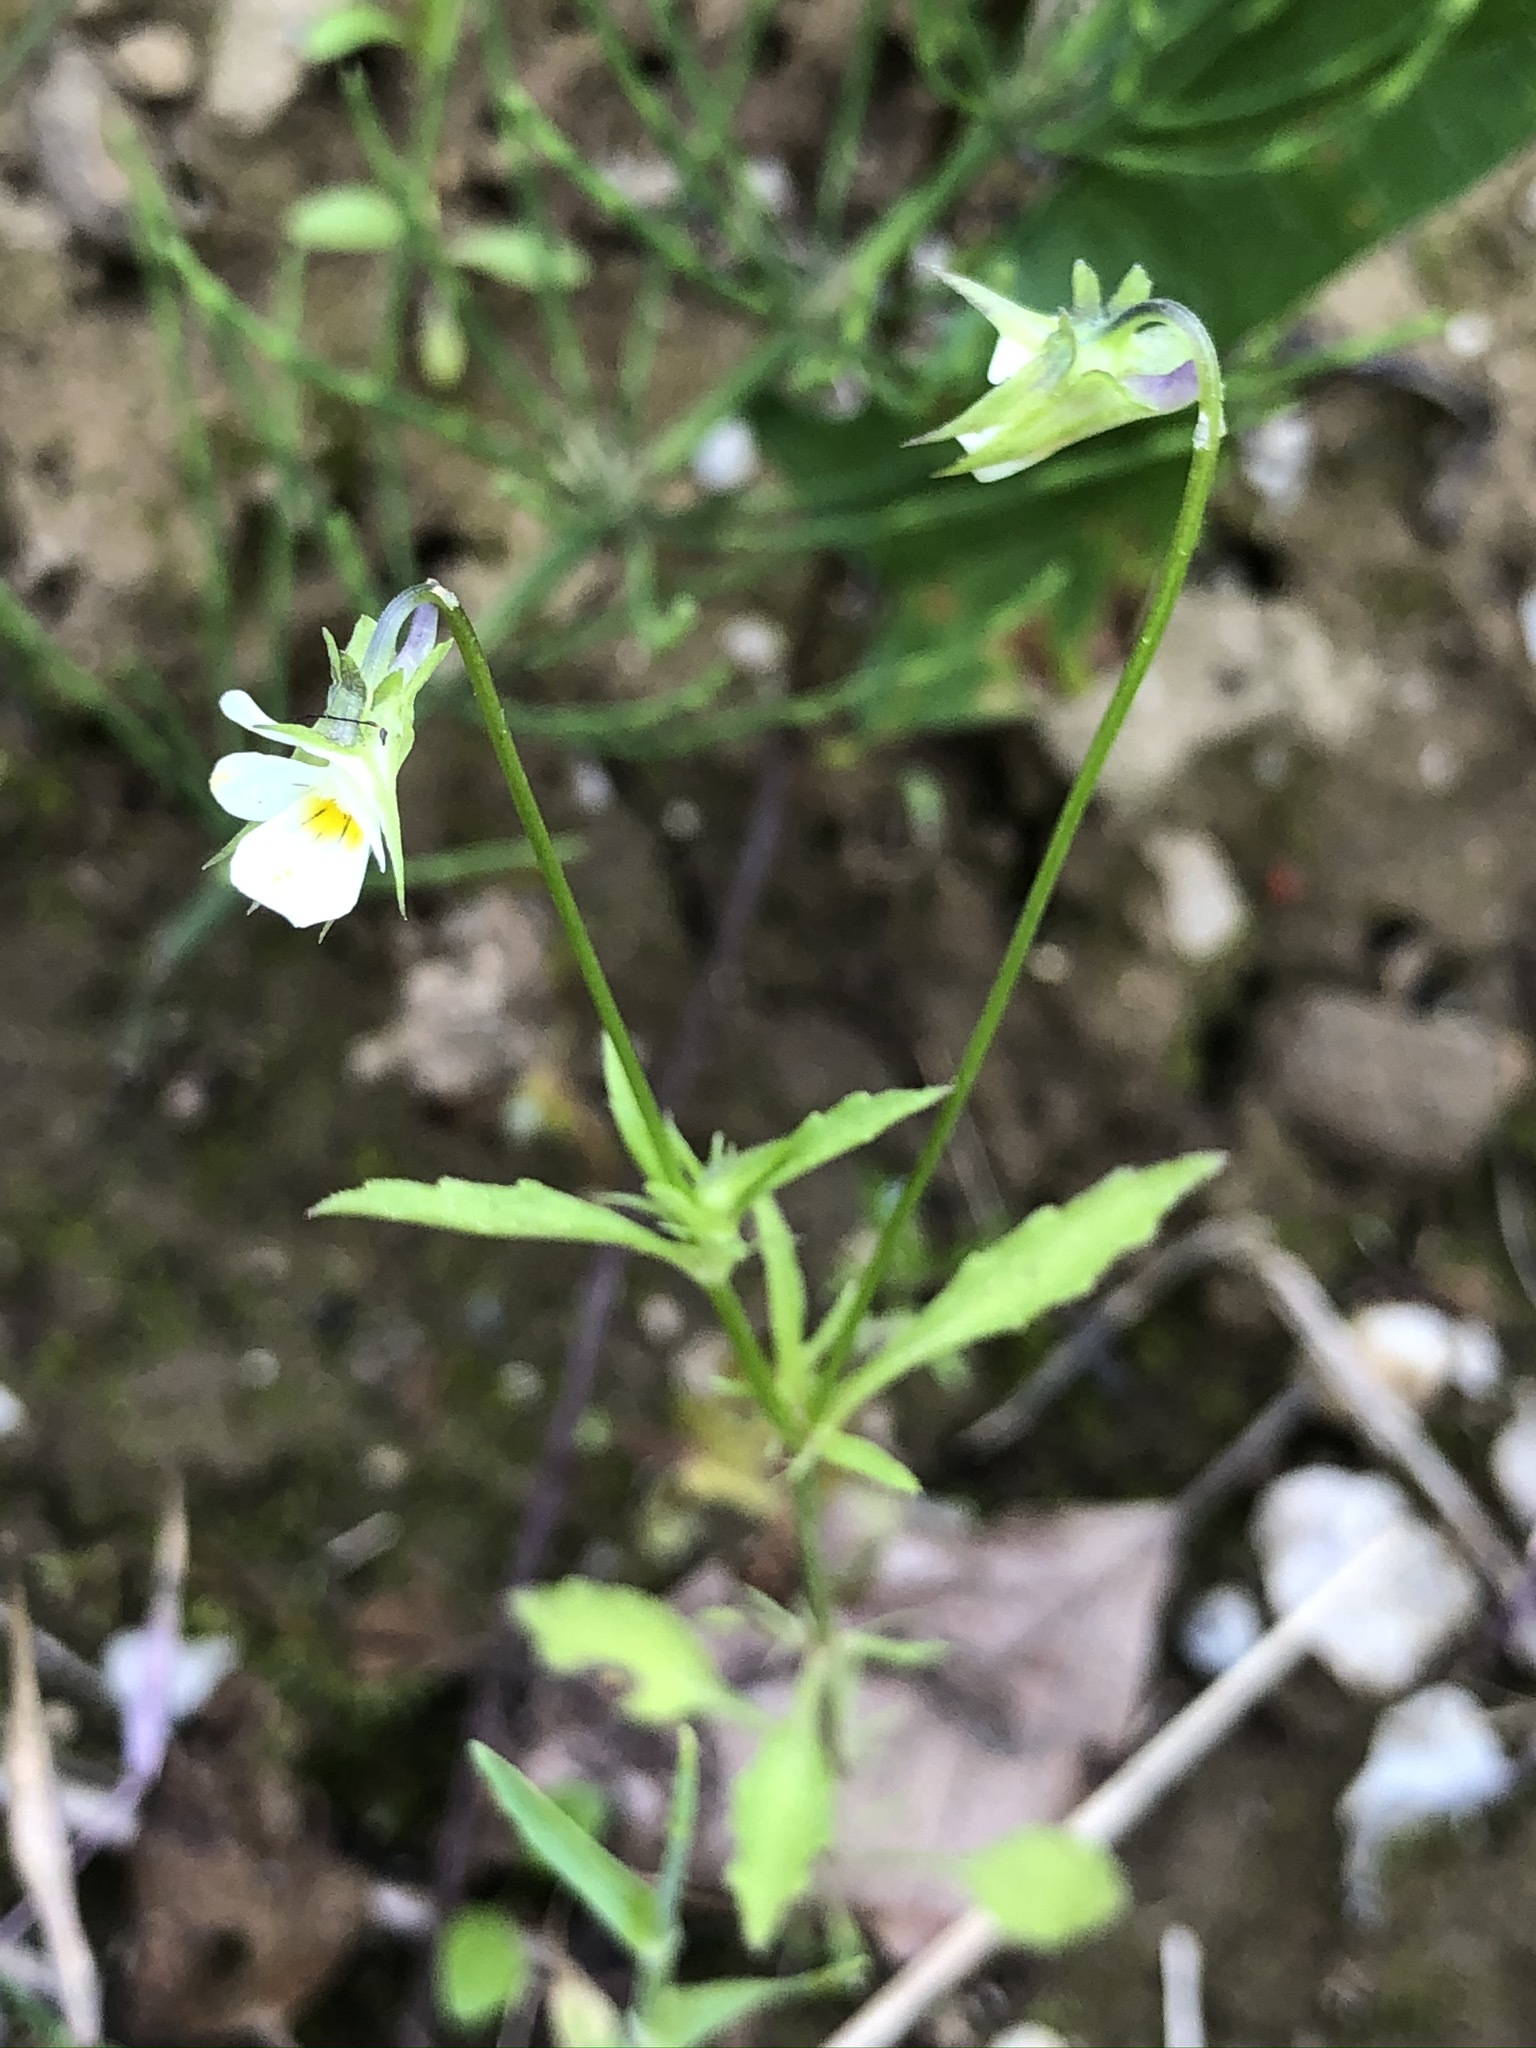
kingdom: Plantae
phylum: Tracheophyta
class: Magnoliopsida
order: Malpighiales
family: Violaceae
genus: Viola
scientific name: Viola arvensis
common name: Field pansy
